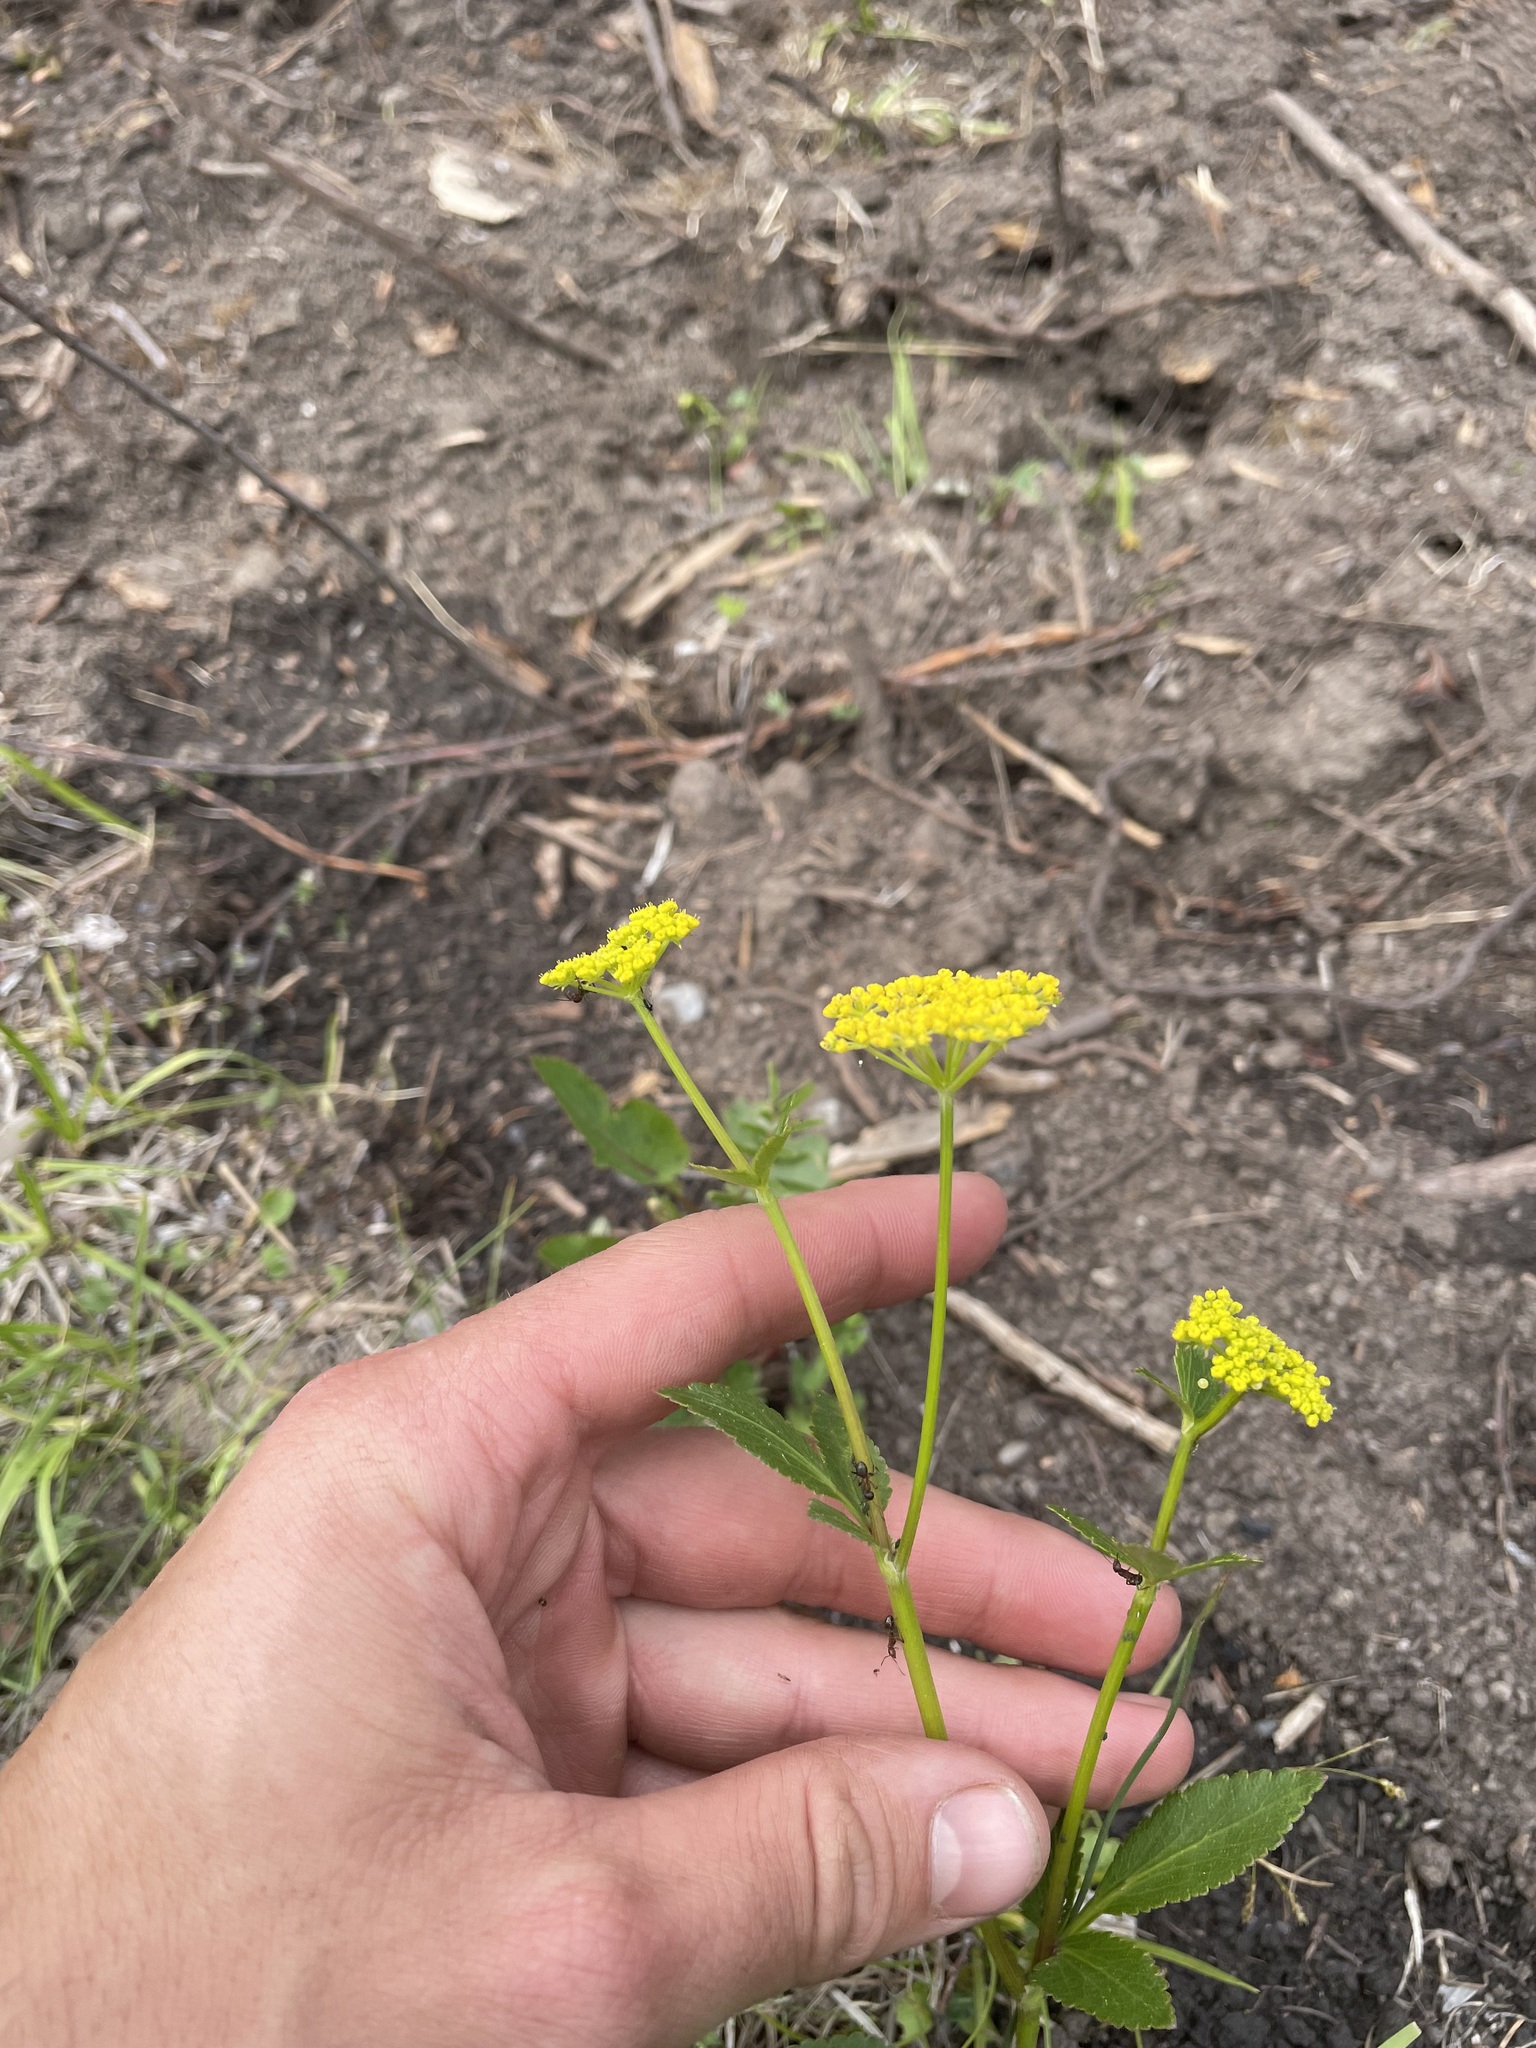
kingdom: Plantae
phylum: Tracheophyta
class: Magnoliopsida
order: Apiales
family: Apiaceae
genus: Zizia
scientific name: Zizia aptera
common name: Heart-leaved alexanders
